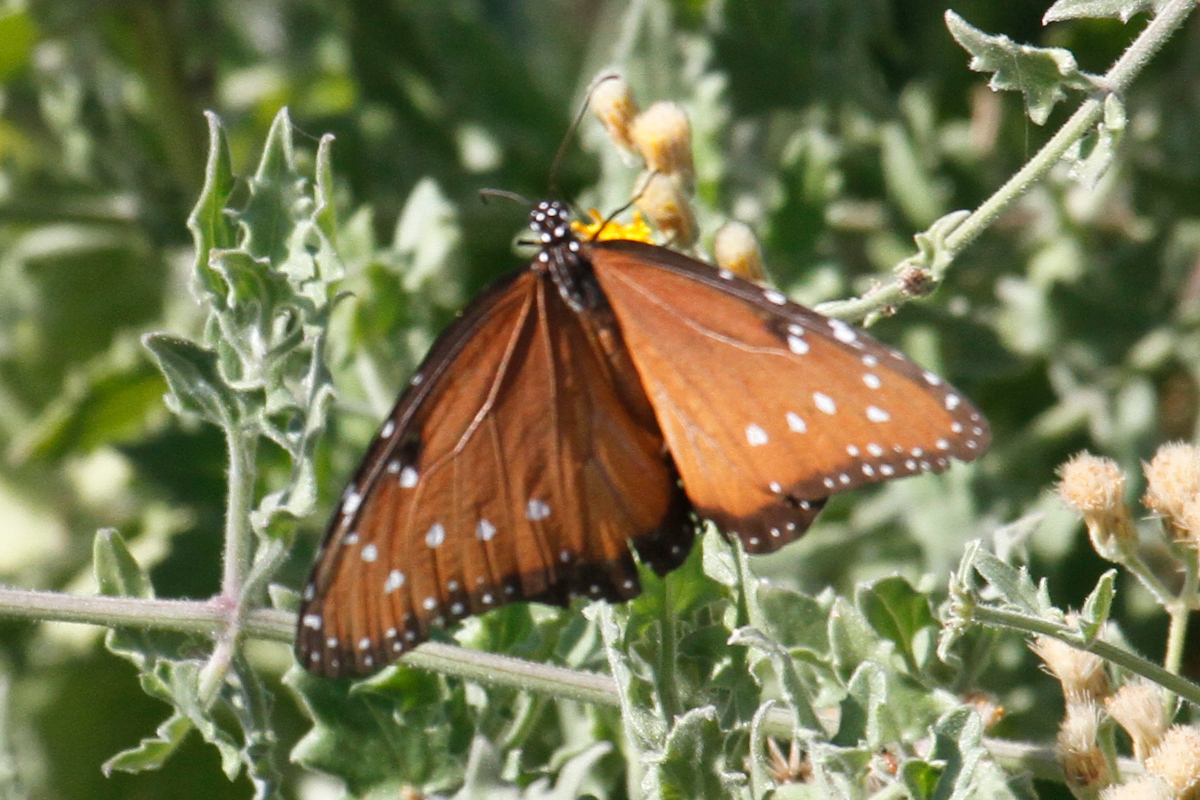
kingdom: Animalia
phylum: Arthropoda
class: Insecta
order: Lepidoptera
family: Nymphalidae
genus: Danaus
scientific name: Danaus gilippus
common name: Queen
